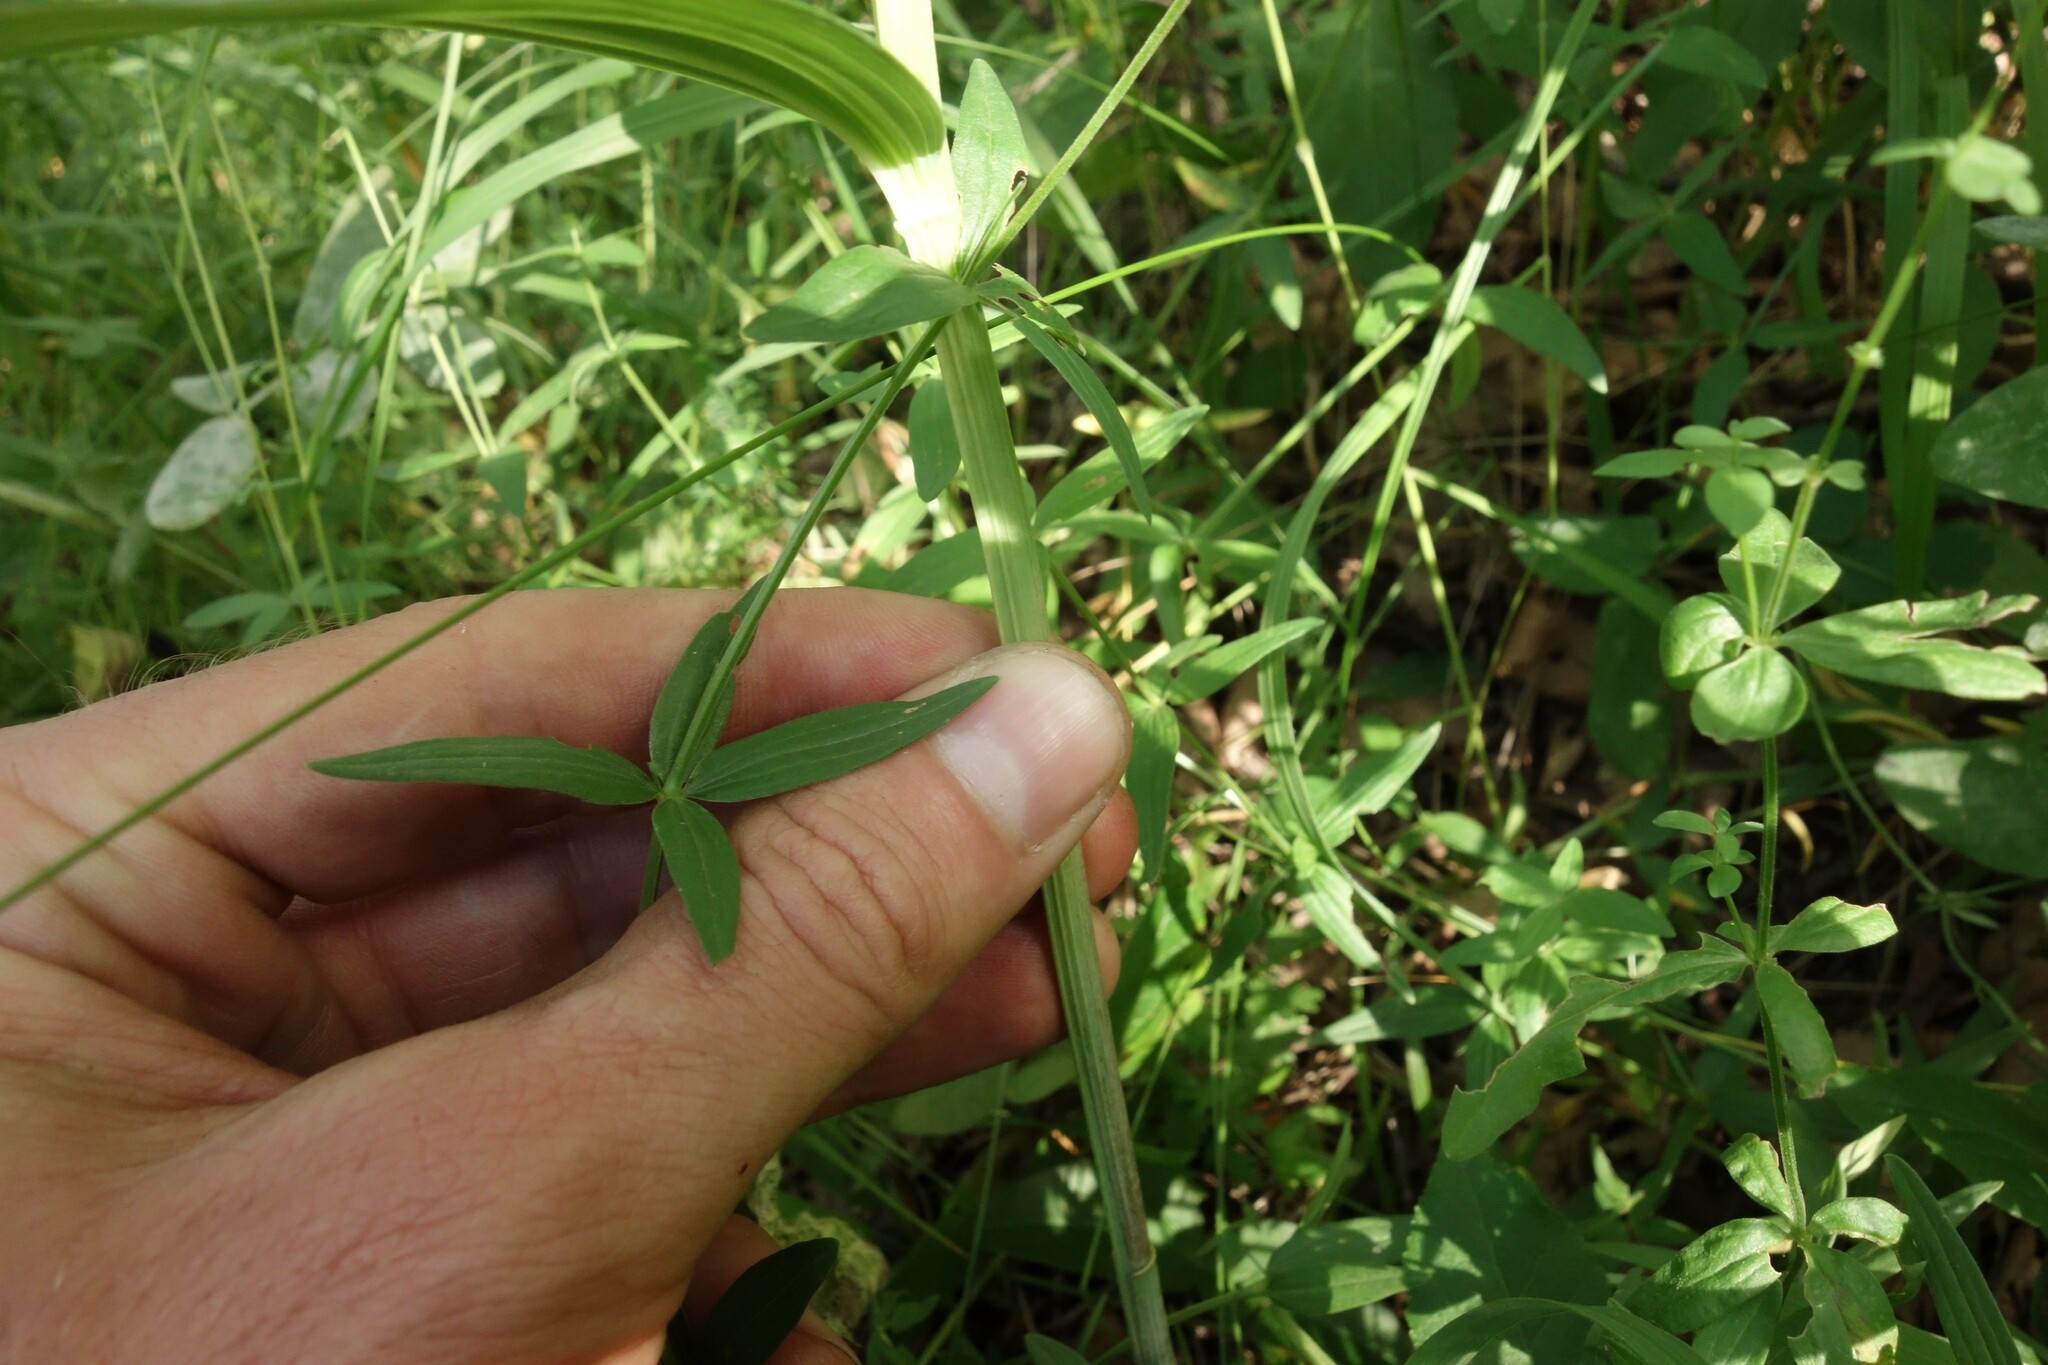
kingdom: Plantae
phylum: Tracheophyta
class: Liliopsida
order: Asparagales
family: Asparagaceae
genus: Polygonatum
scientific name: Polygonatum odoratum
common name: Angular solomon's-seal
